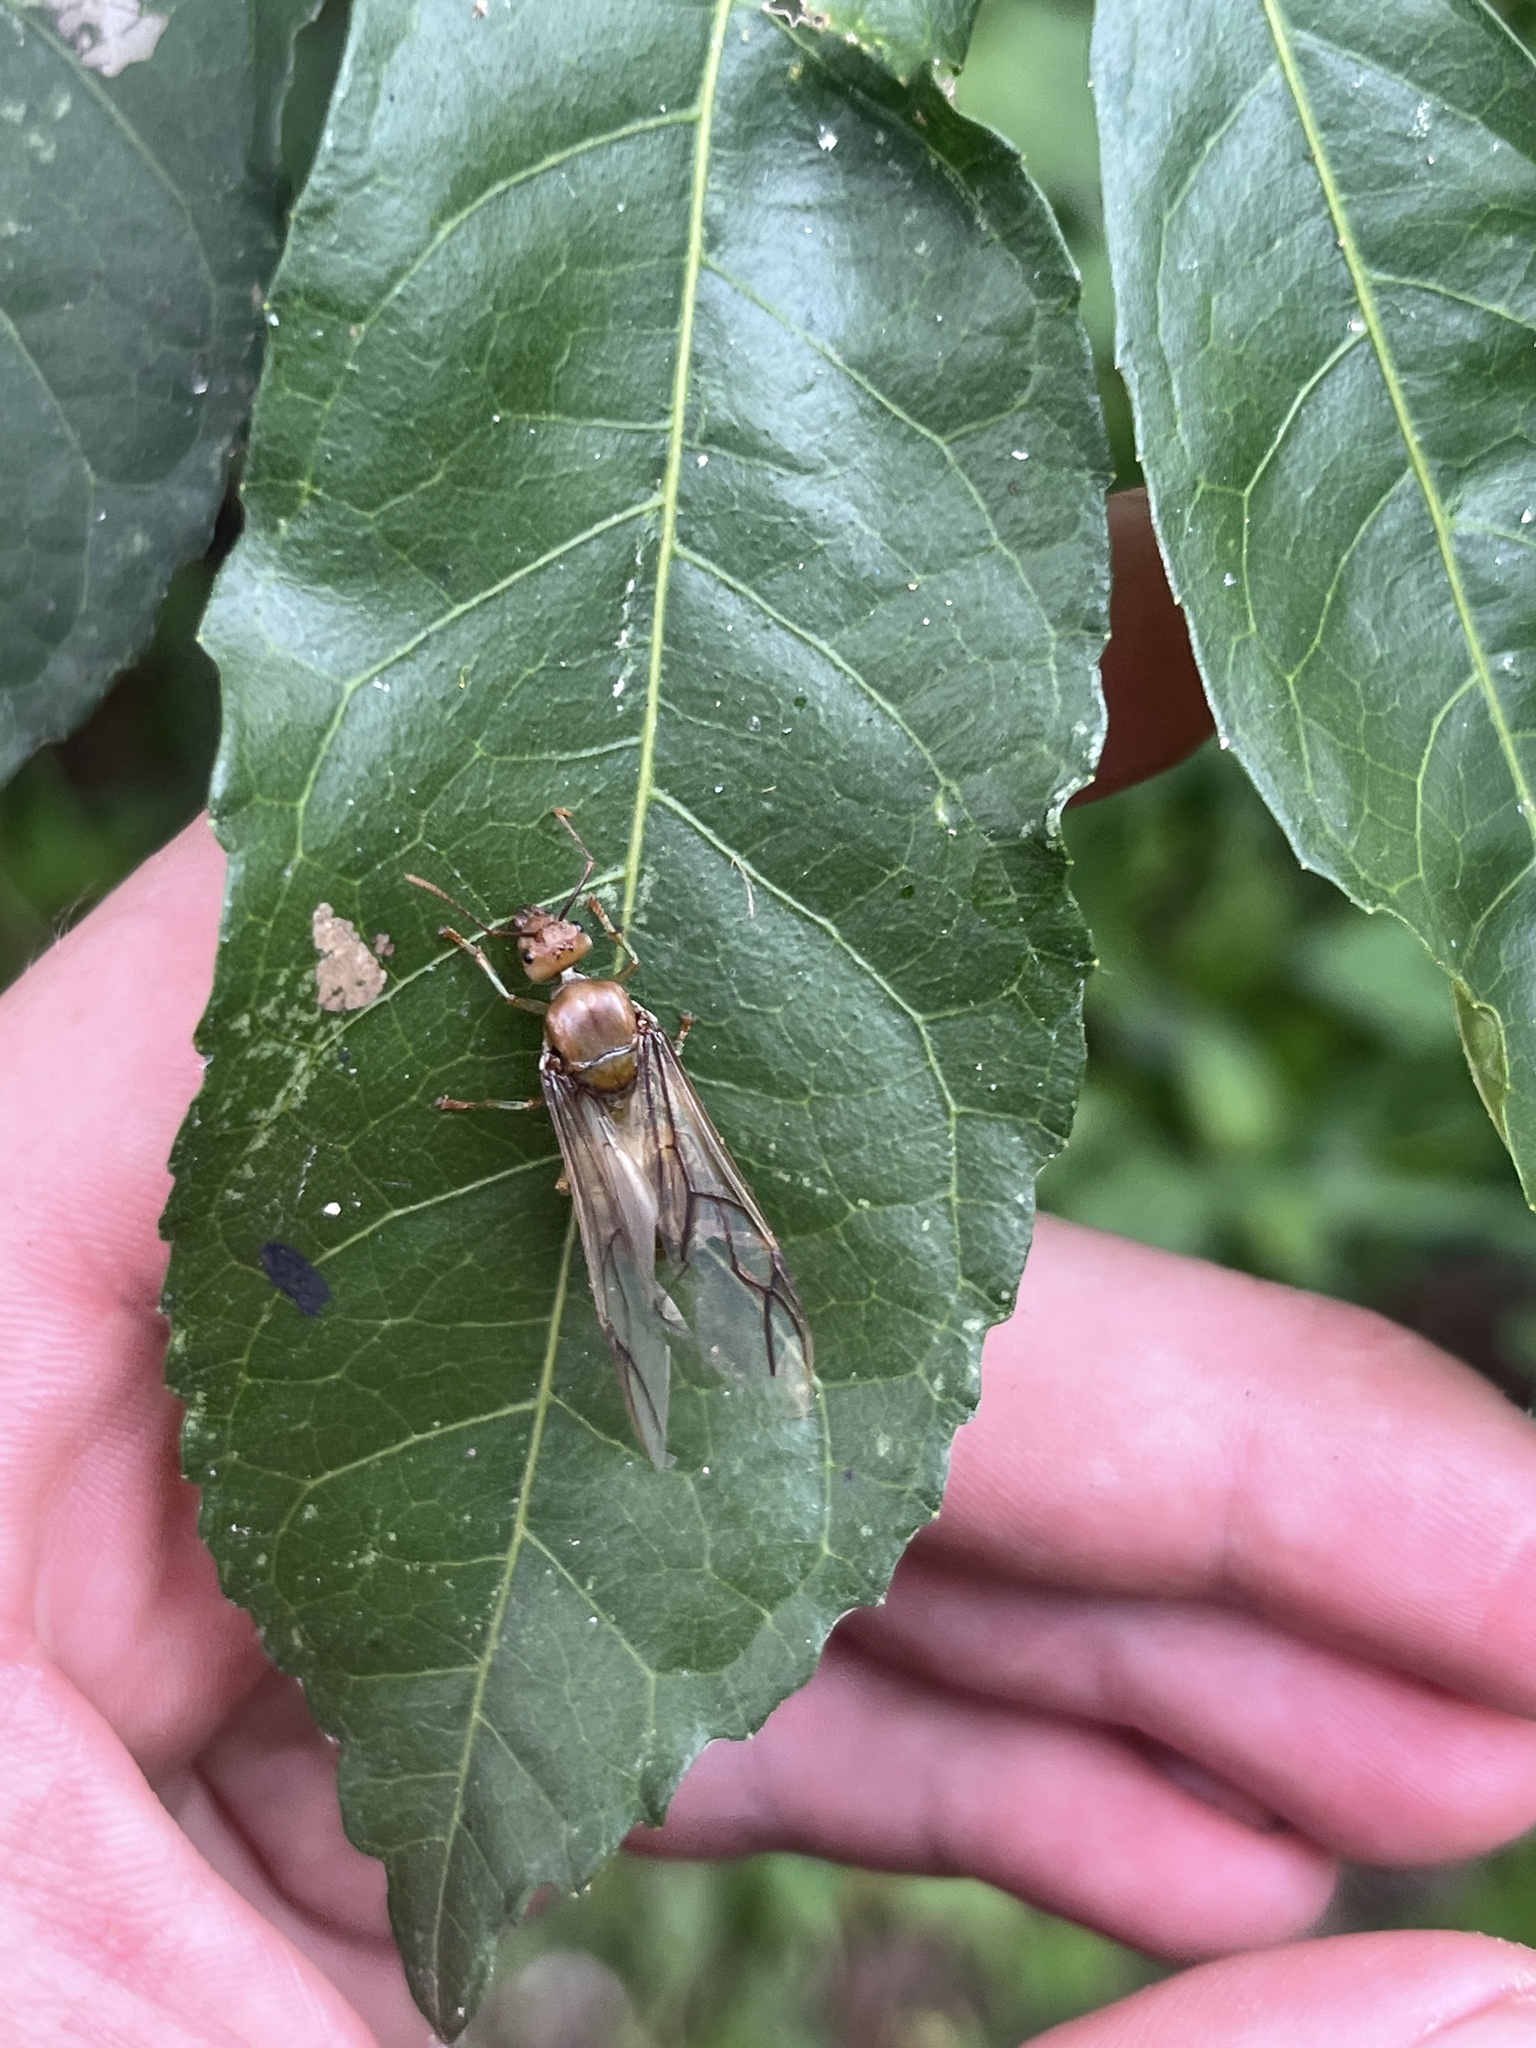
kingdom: Animalia
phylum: Arthropoda
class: Insecta
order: Hymenoptera
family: Formicidae
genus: Oecophylla
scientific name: Oecophylla smaragdina
